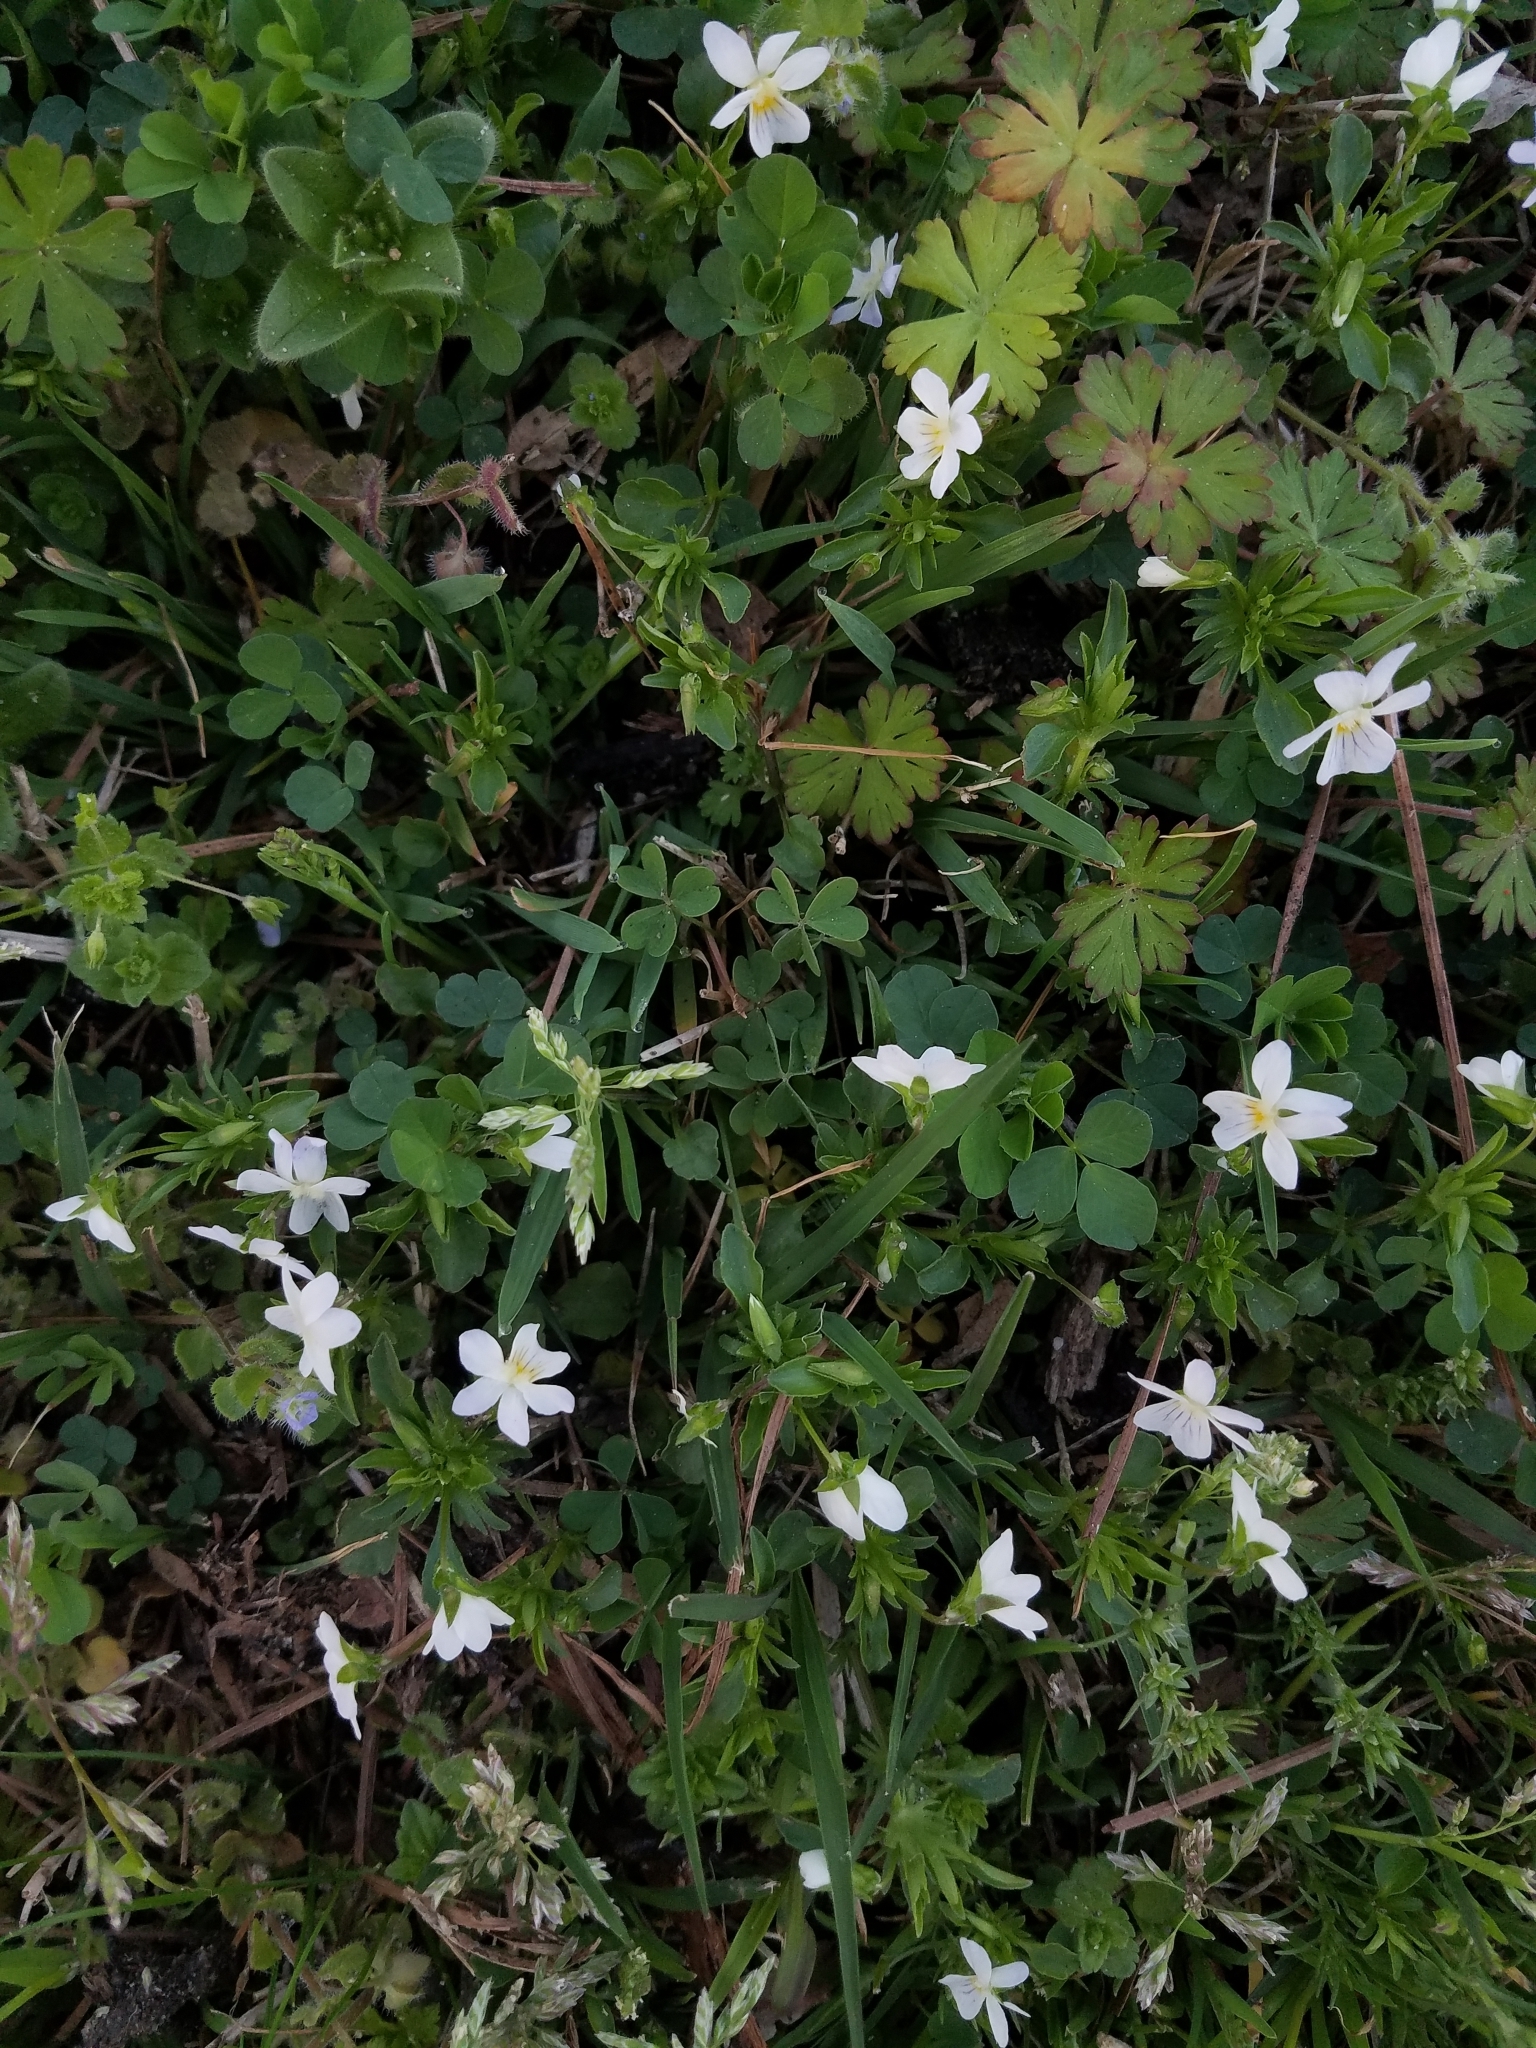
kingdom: Plantae
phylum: Tracheophyta
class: Magnoliopsida
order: Malpighiales
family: Violaceae
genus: Viola
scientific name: Viola rafinesquei
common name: American field pansy
